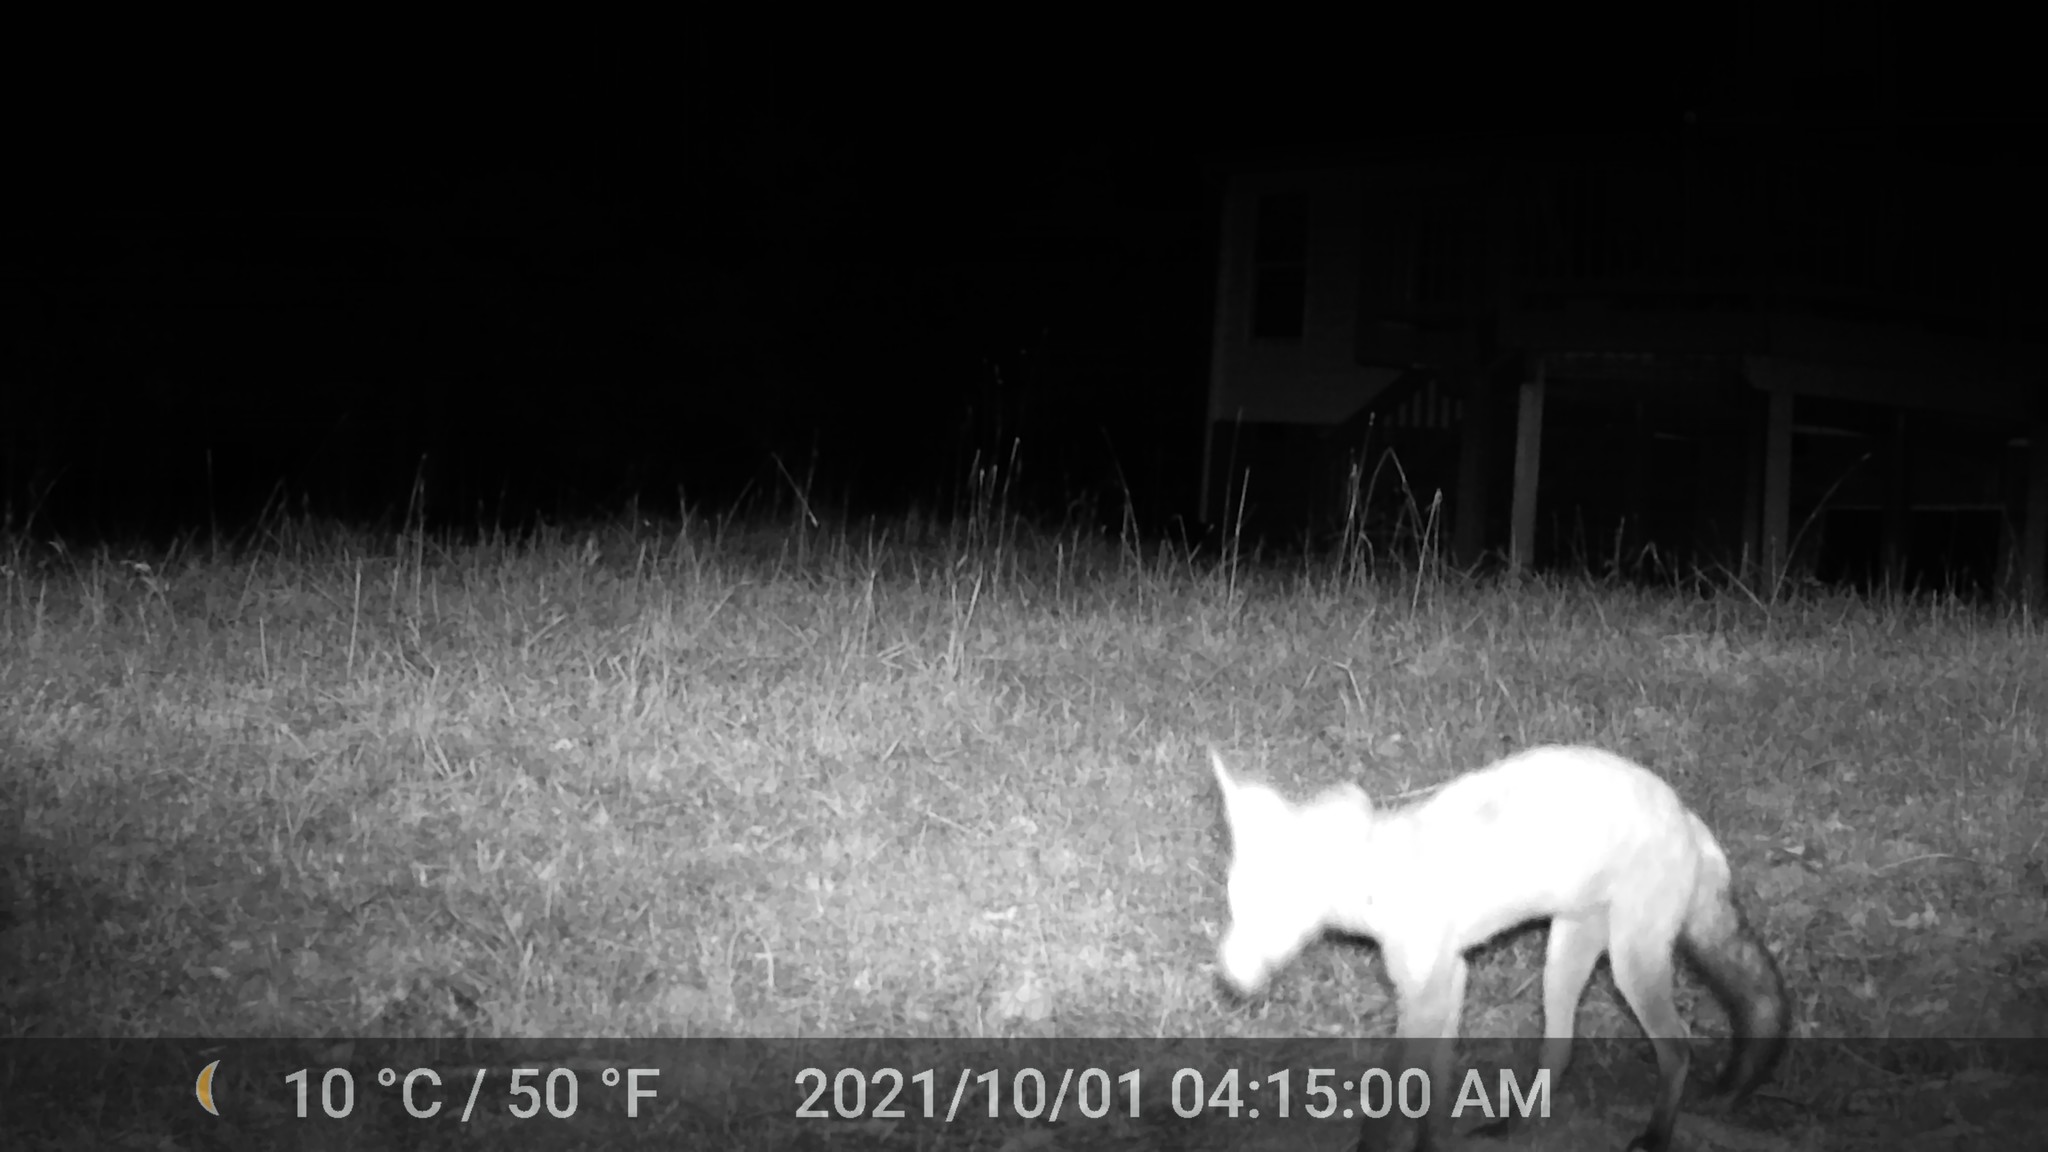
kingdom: Animalia
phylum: Chordata
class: Mammalia
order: Carnivora
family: Canidae
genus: Vulpes
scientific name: Vulpes vulpes
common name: Red fox
